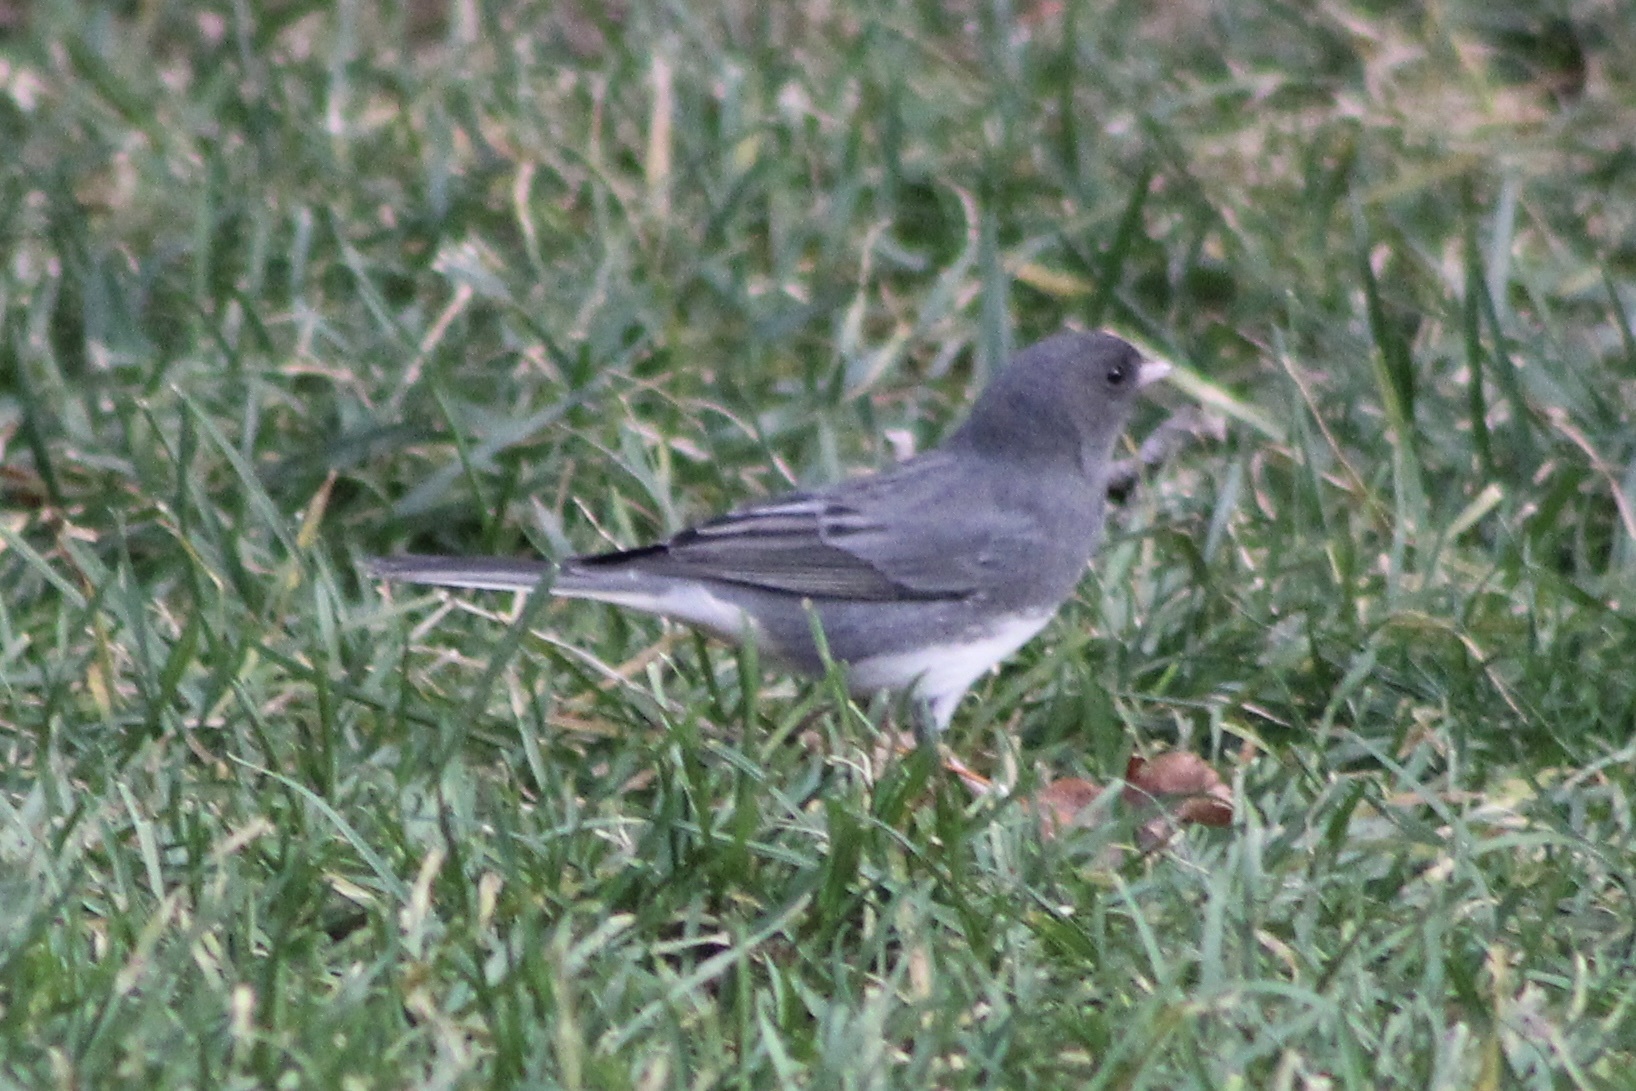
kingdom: Animalia
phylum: Chordata
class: Aves
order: Passeriformes
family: Passerellidae
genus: Junco
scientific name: Junco hyemalis
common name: Dark-eyed junco
